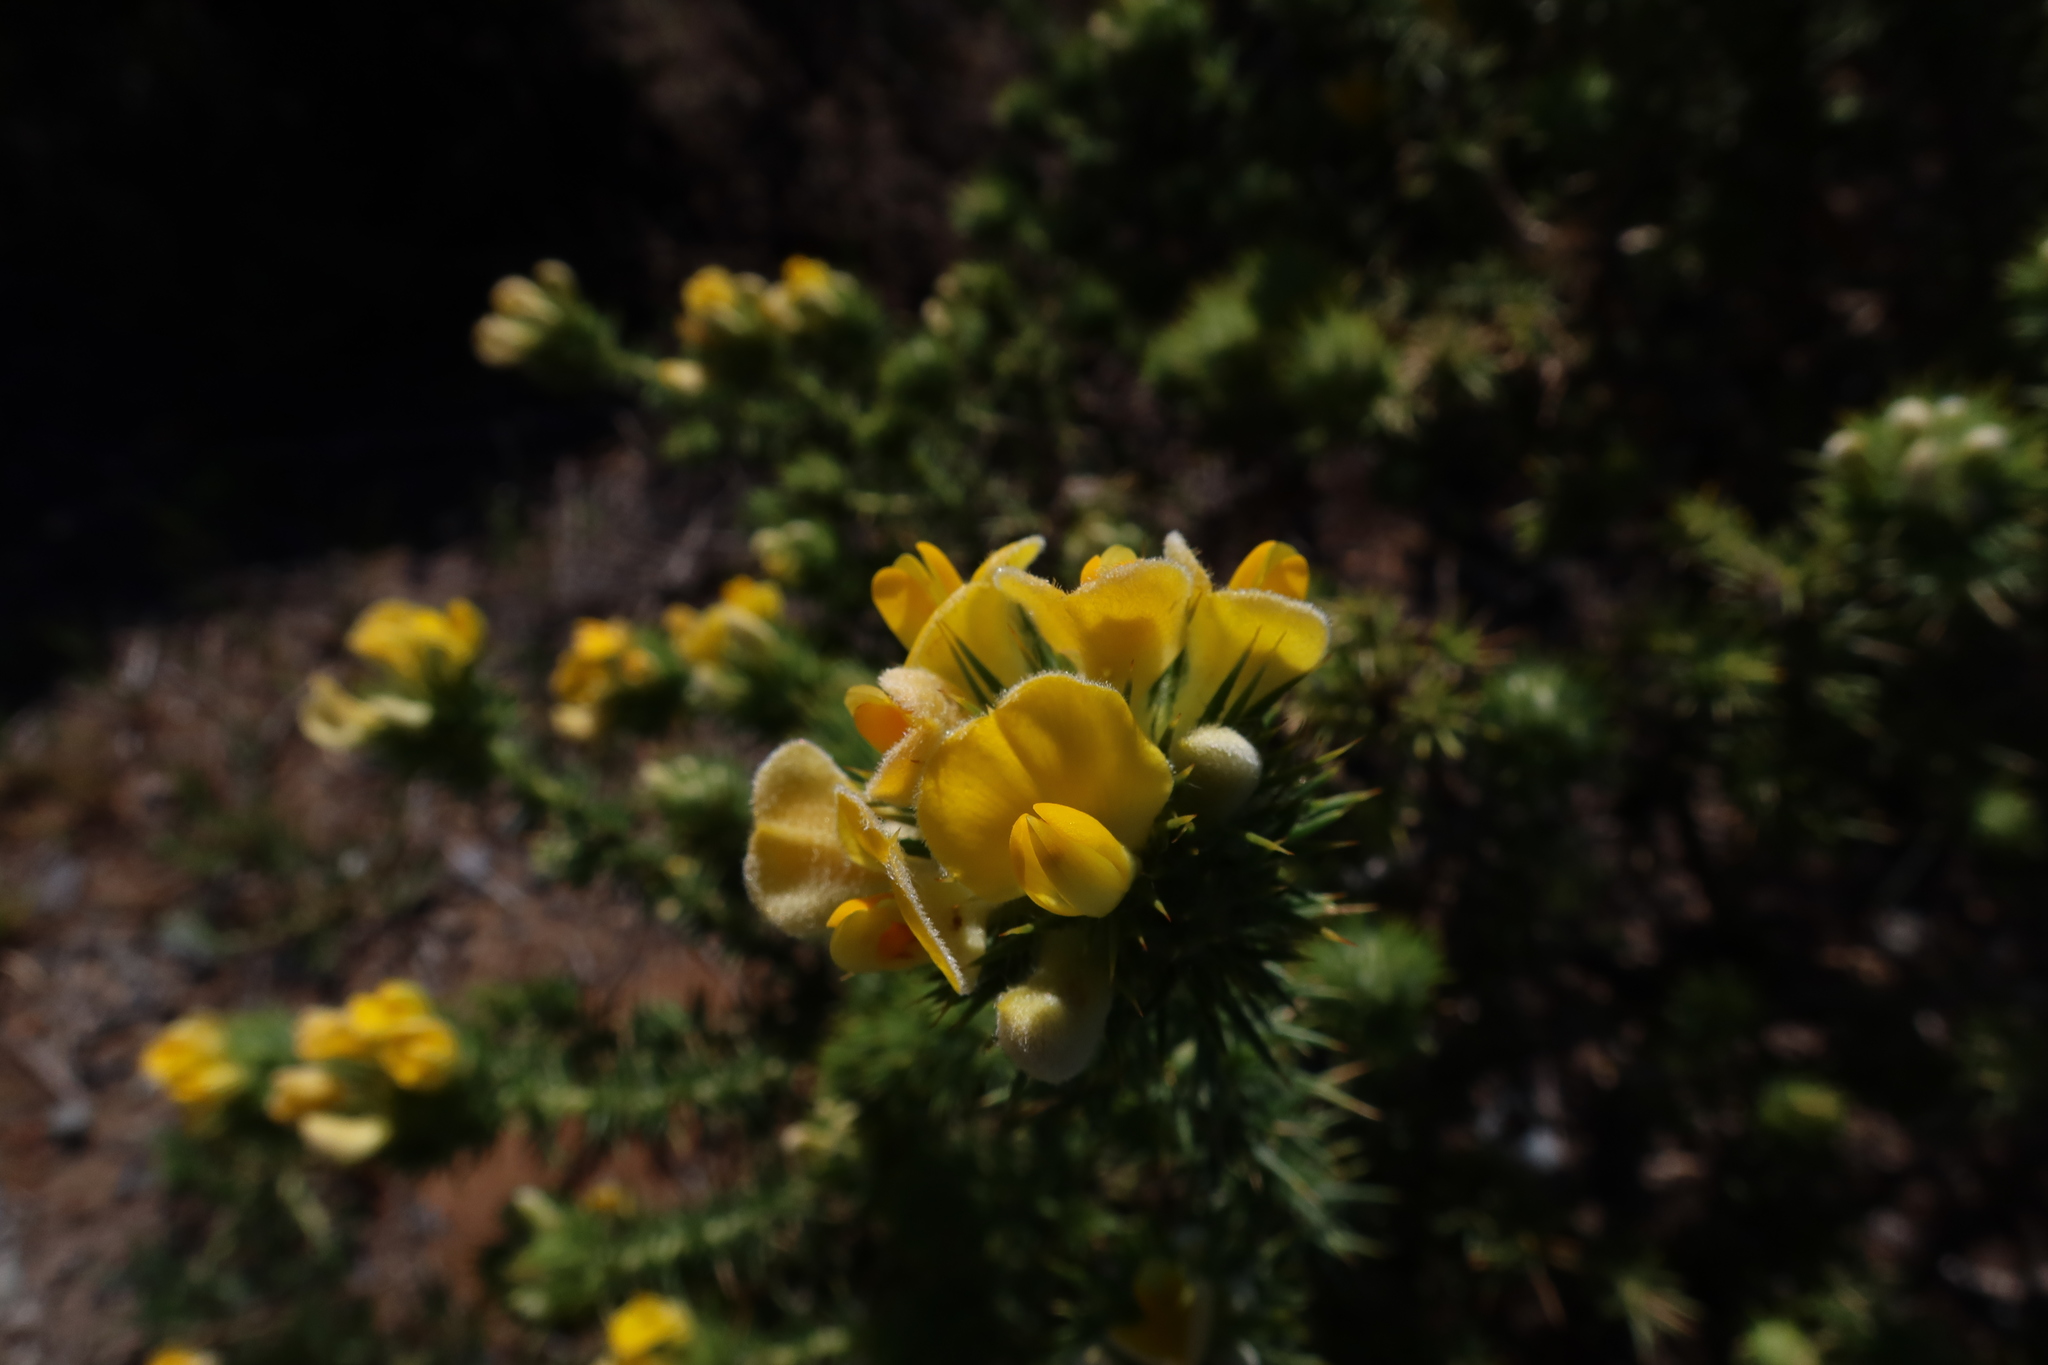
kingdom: Plantae
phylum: Tracheophyta
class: Magnoliopsida
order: Fabales
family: Fabaceae
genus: Aspalathus
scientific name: Aspalathus chenopoda
